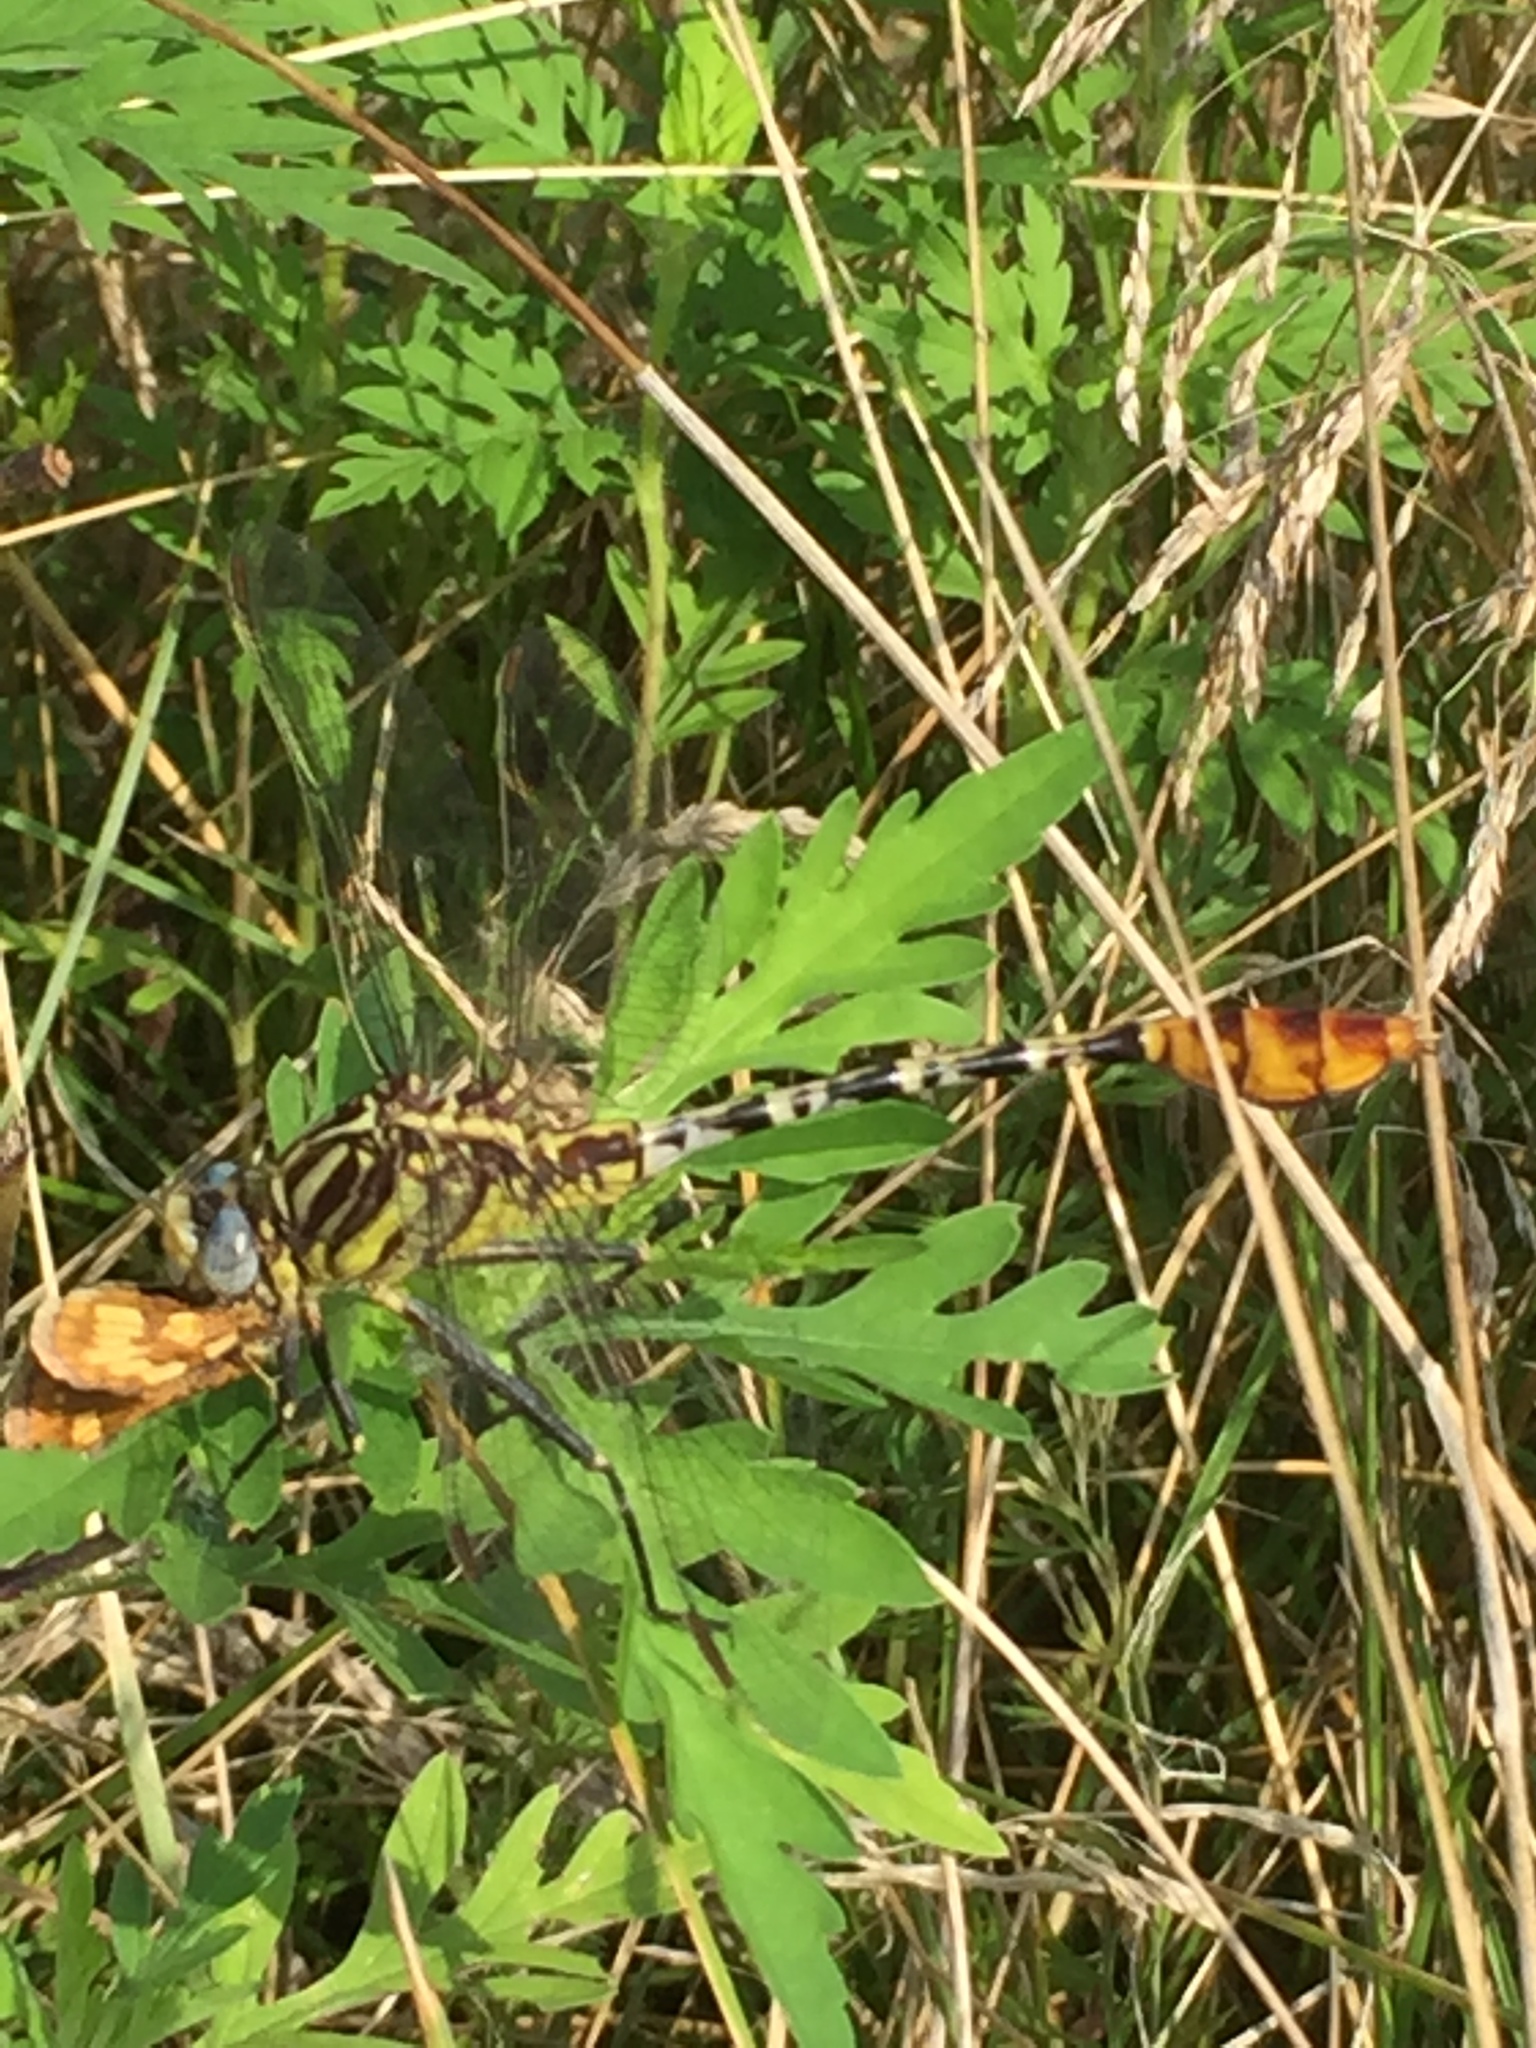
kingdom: Animalia
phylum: Arthropoda
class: Insecta
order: Odonata
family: Gomphidae
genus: Dromogomphus
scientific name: Dromogomphus spoliatus
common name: Flag-tailed spinyleg
